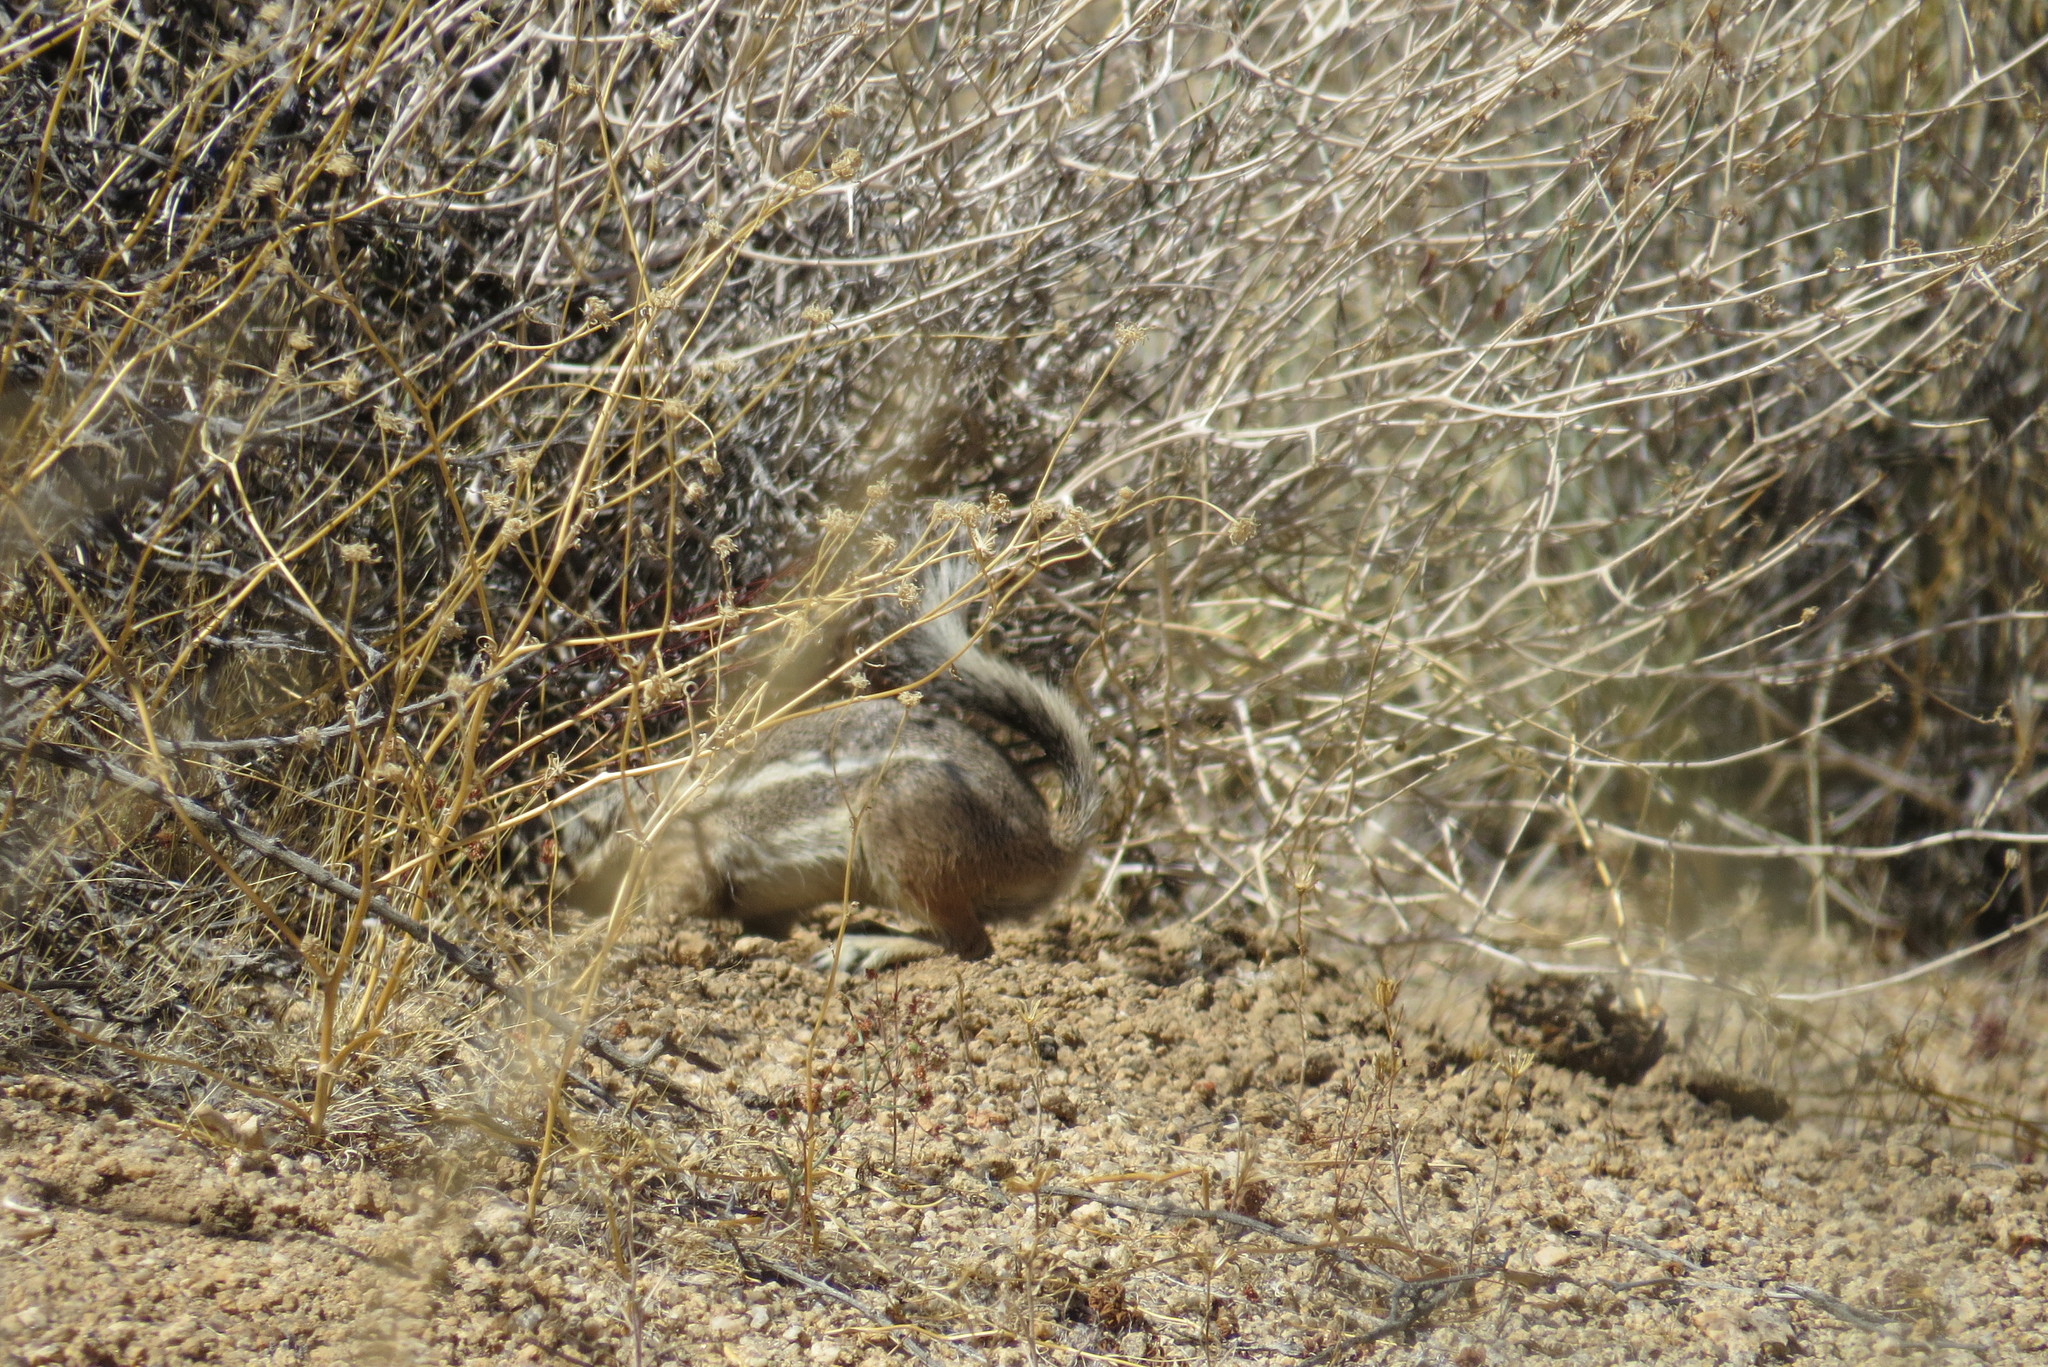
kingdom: Animalia
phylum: Chordata
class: Mammalia
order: Rodentia
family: Sciuridae
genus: Ammospermophilus
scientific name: Ammospermophilus leucurus
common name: White-tailed antelope squirrel
